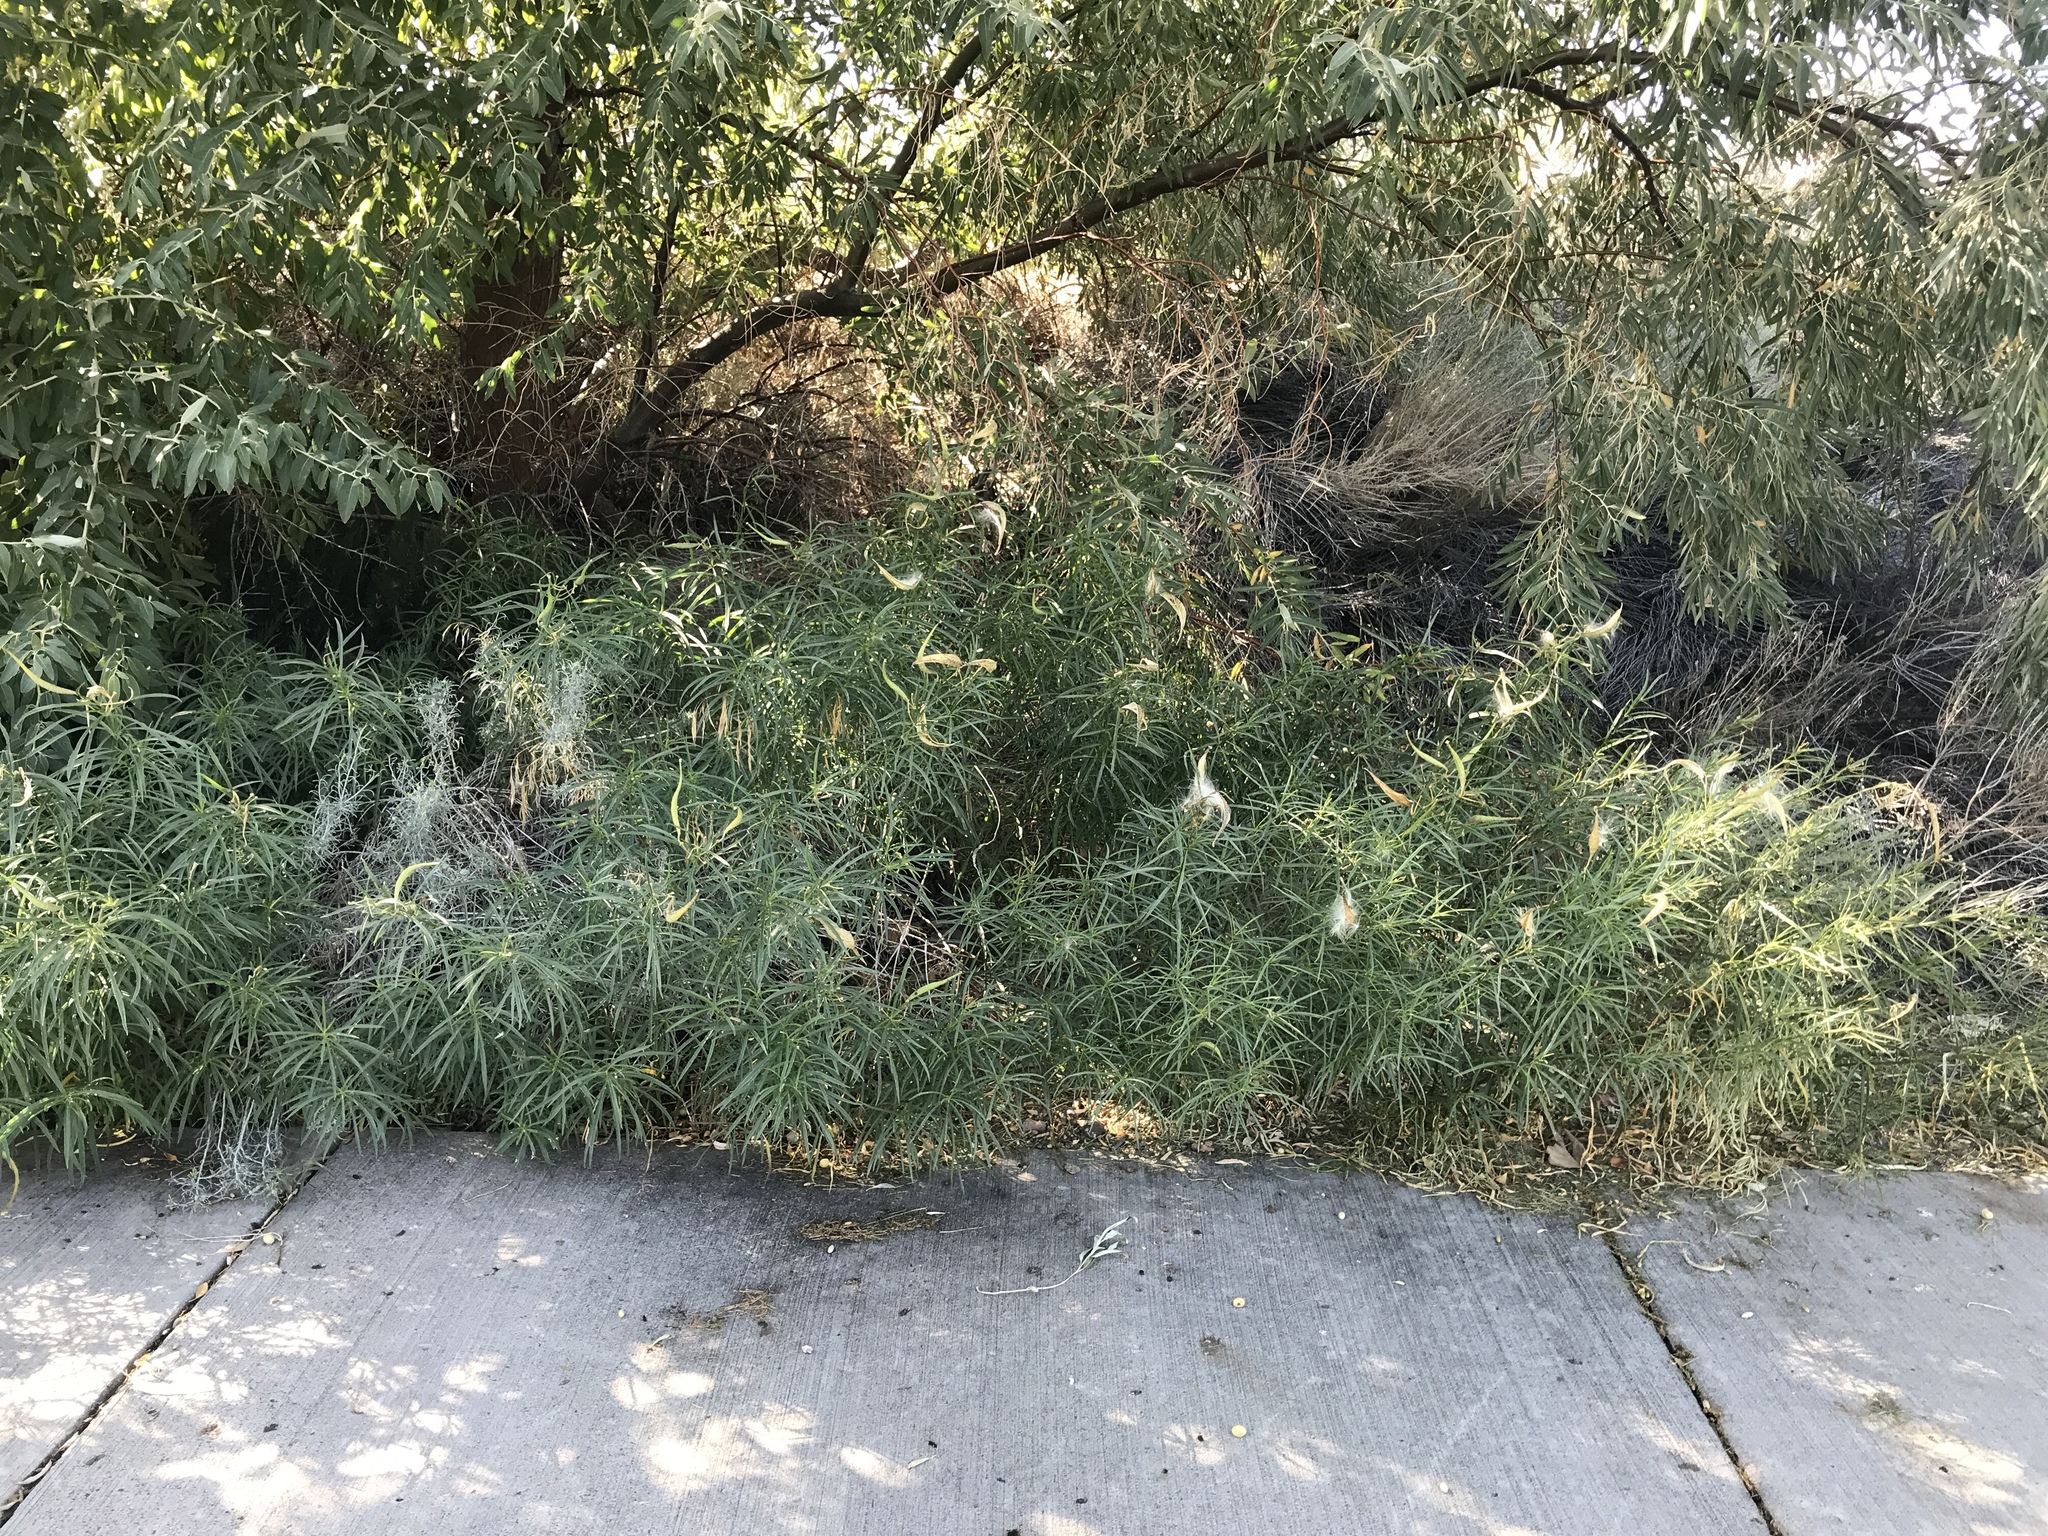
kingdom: Plantae
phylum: Tracheophyta
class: Magnoliopsida
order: Gentianales
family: Apocynaceae
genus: Asclepias
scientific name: Asclepias fascicularis
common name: Mexican milkweed
